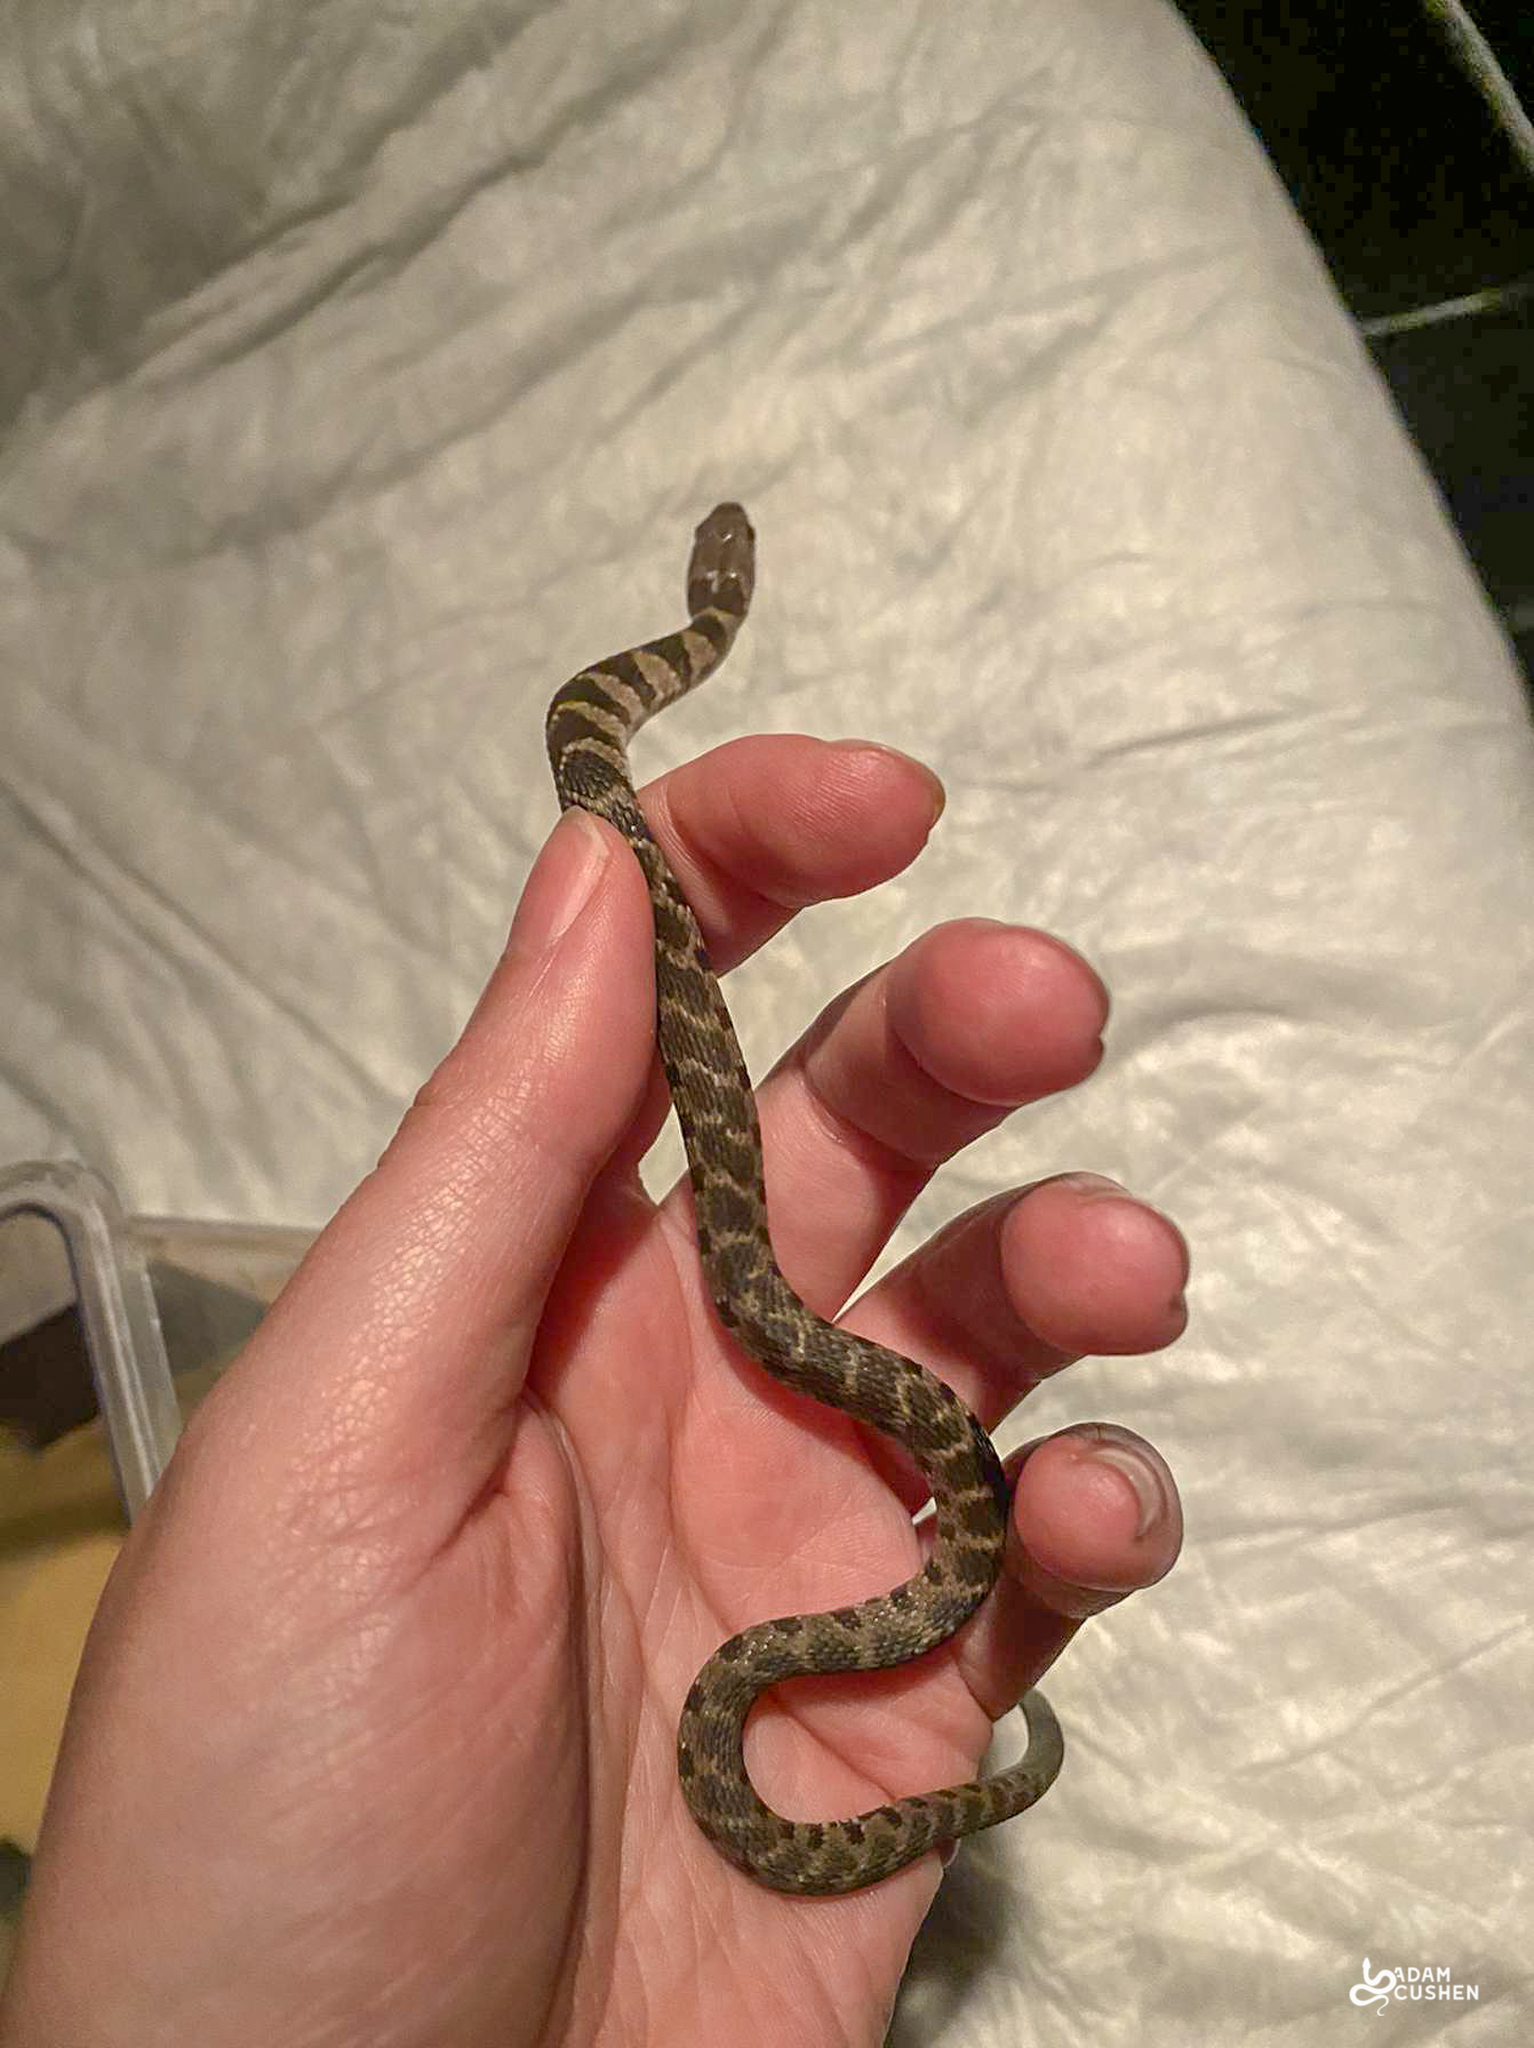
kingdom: Animalia
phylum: Chordata
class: Squamata
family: Colubridae
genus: Nerodia
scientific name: Nerodia sipedon
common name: Northern water snake
